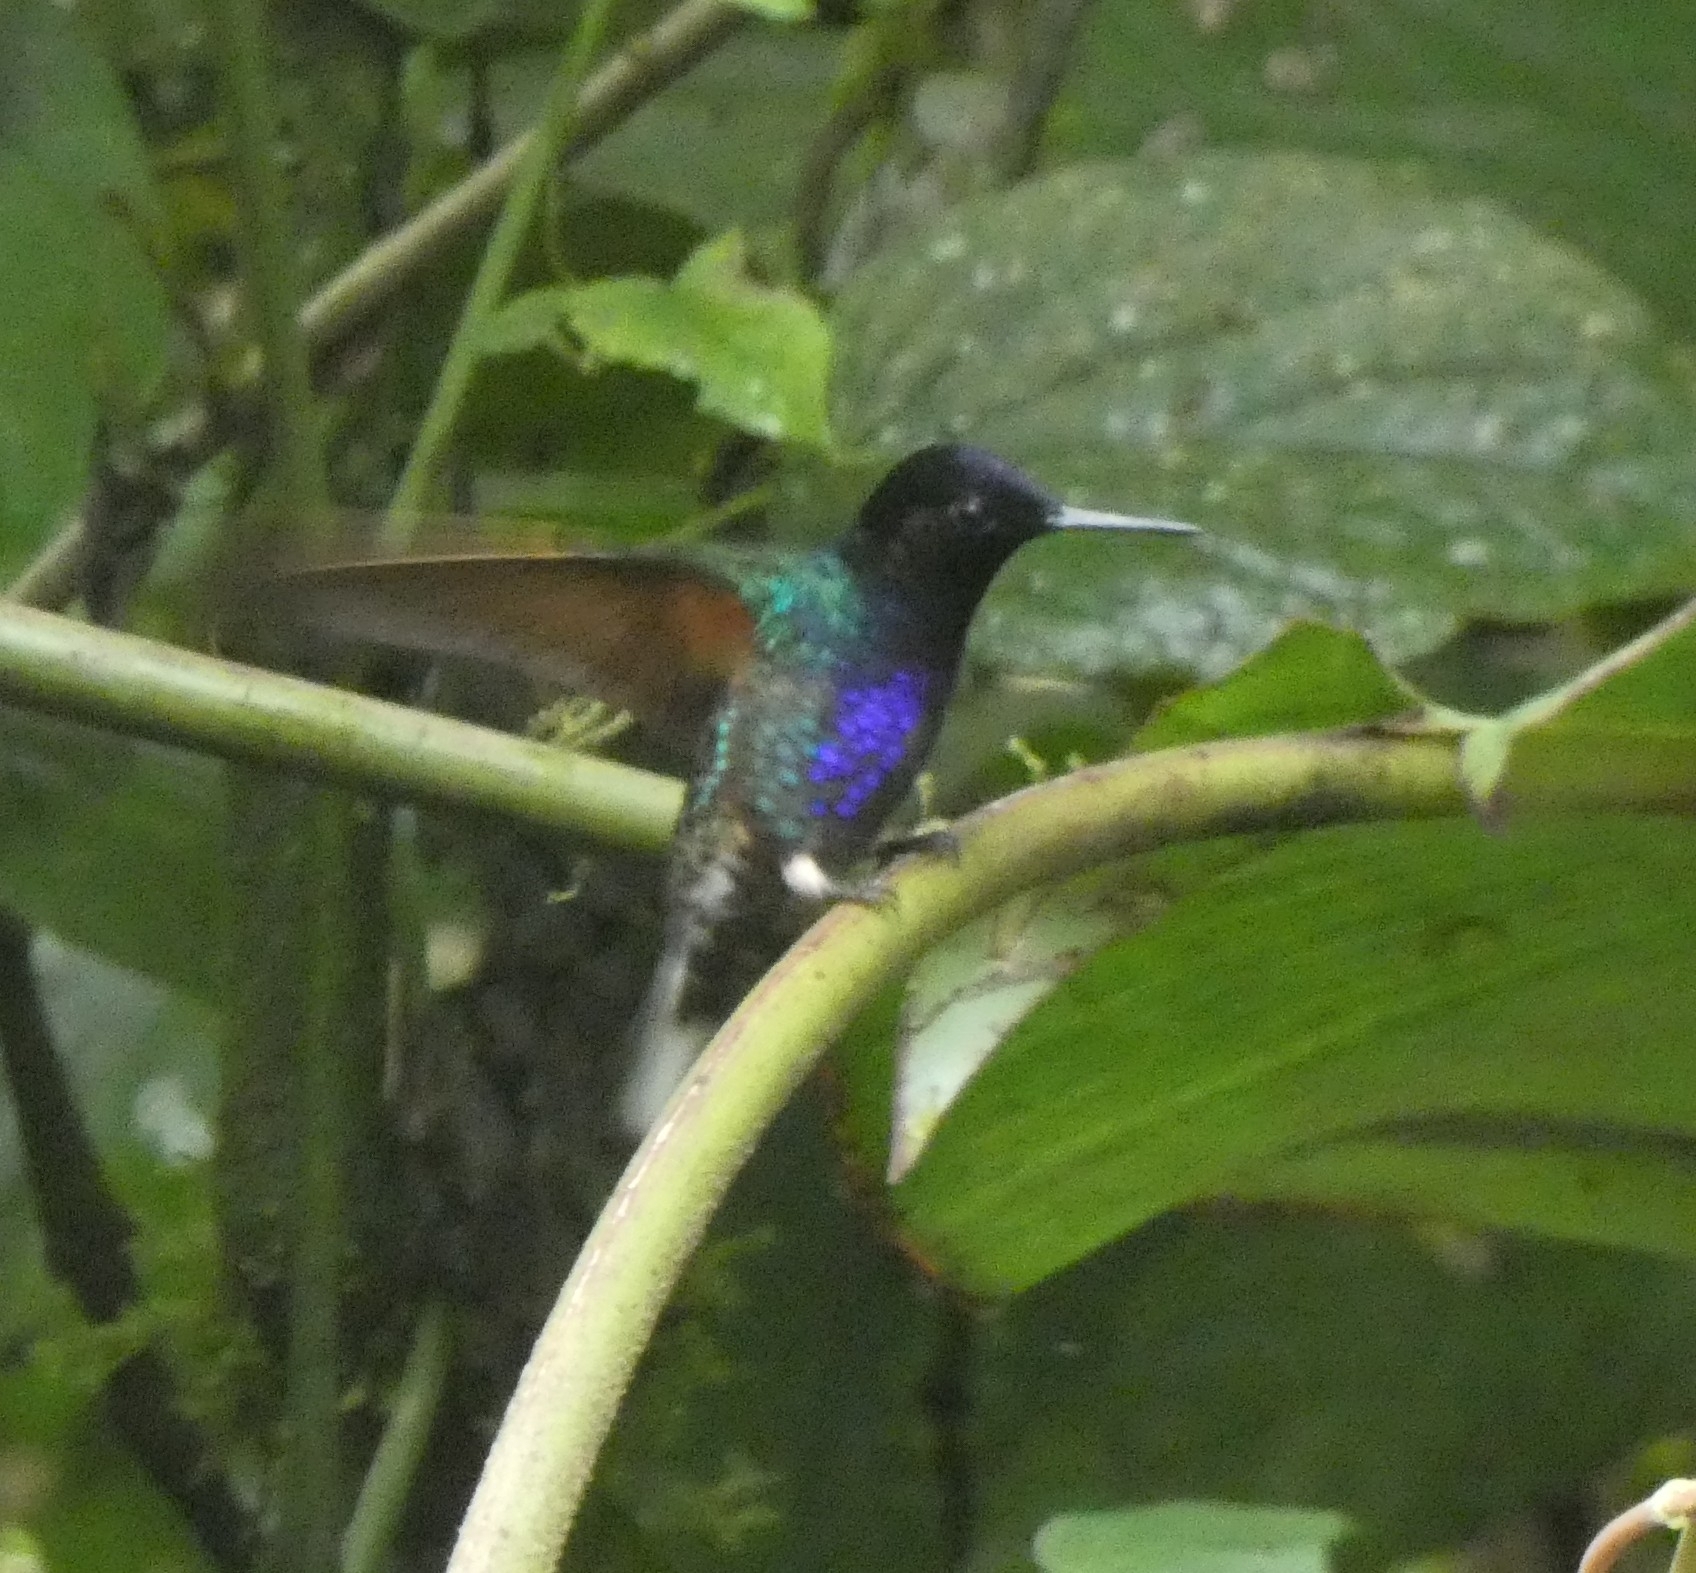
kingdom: Animalia
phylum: Chordata
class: Aves
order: Apodiformes
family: Trochilidae
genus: Boissonneaua
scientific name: Boissonneaua jardini
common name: Velvet-purple coronet
